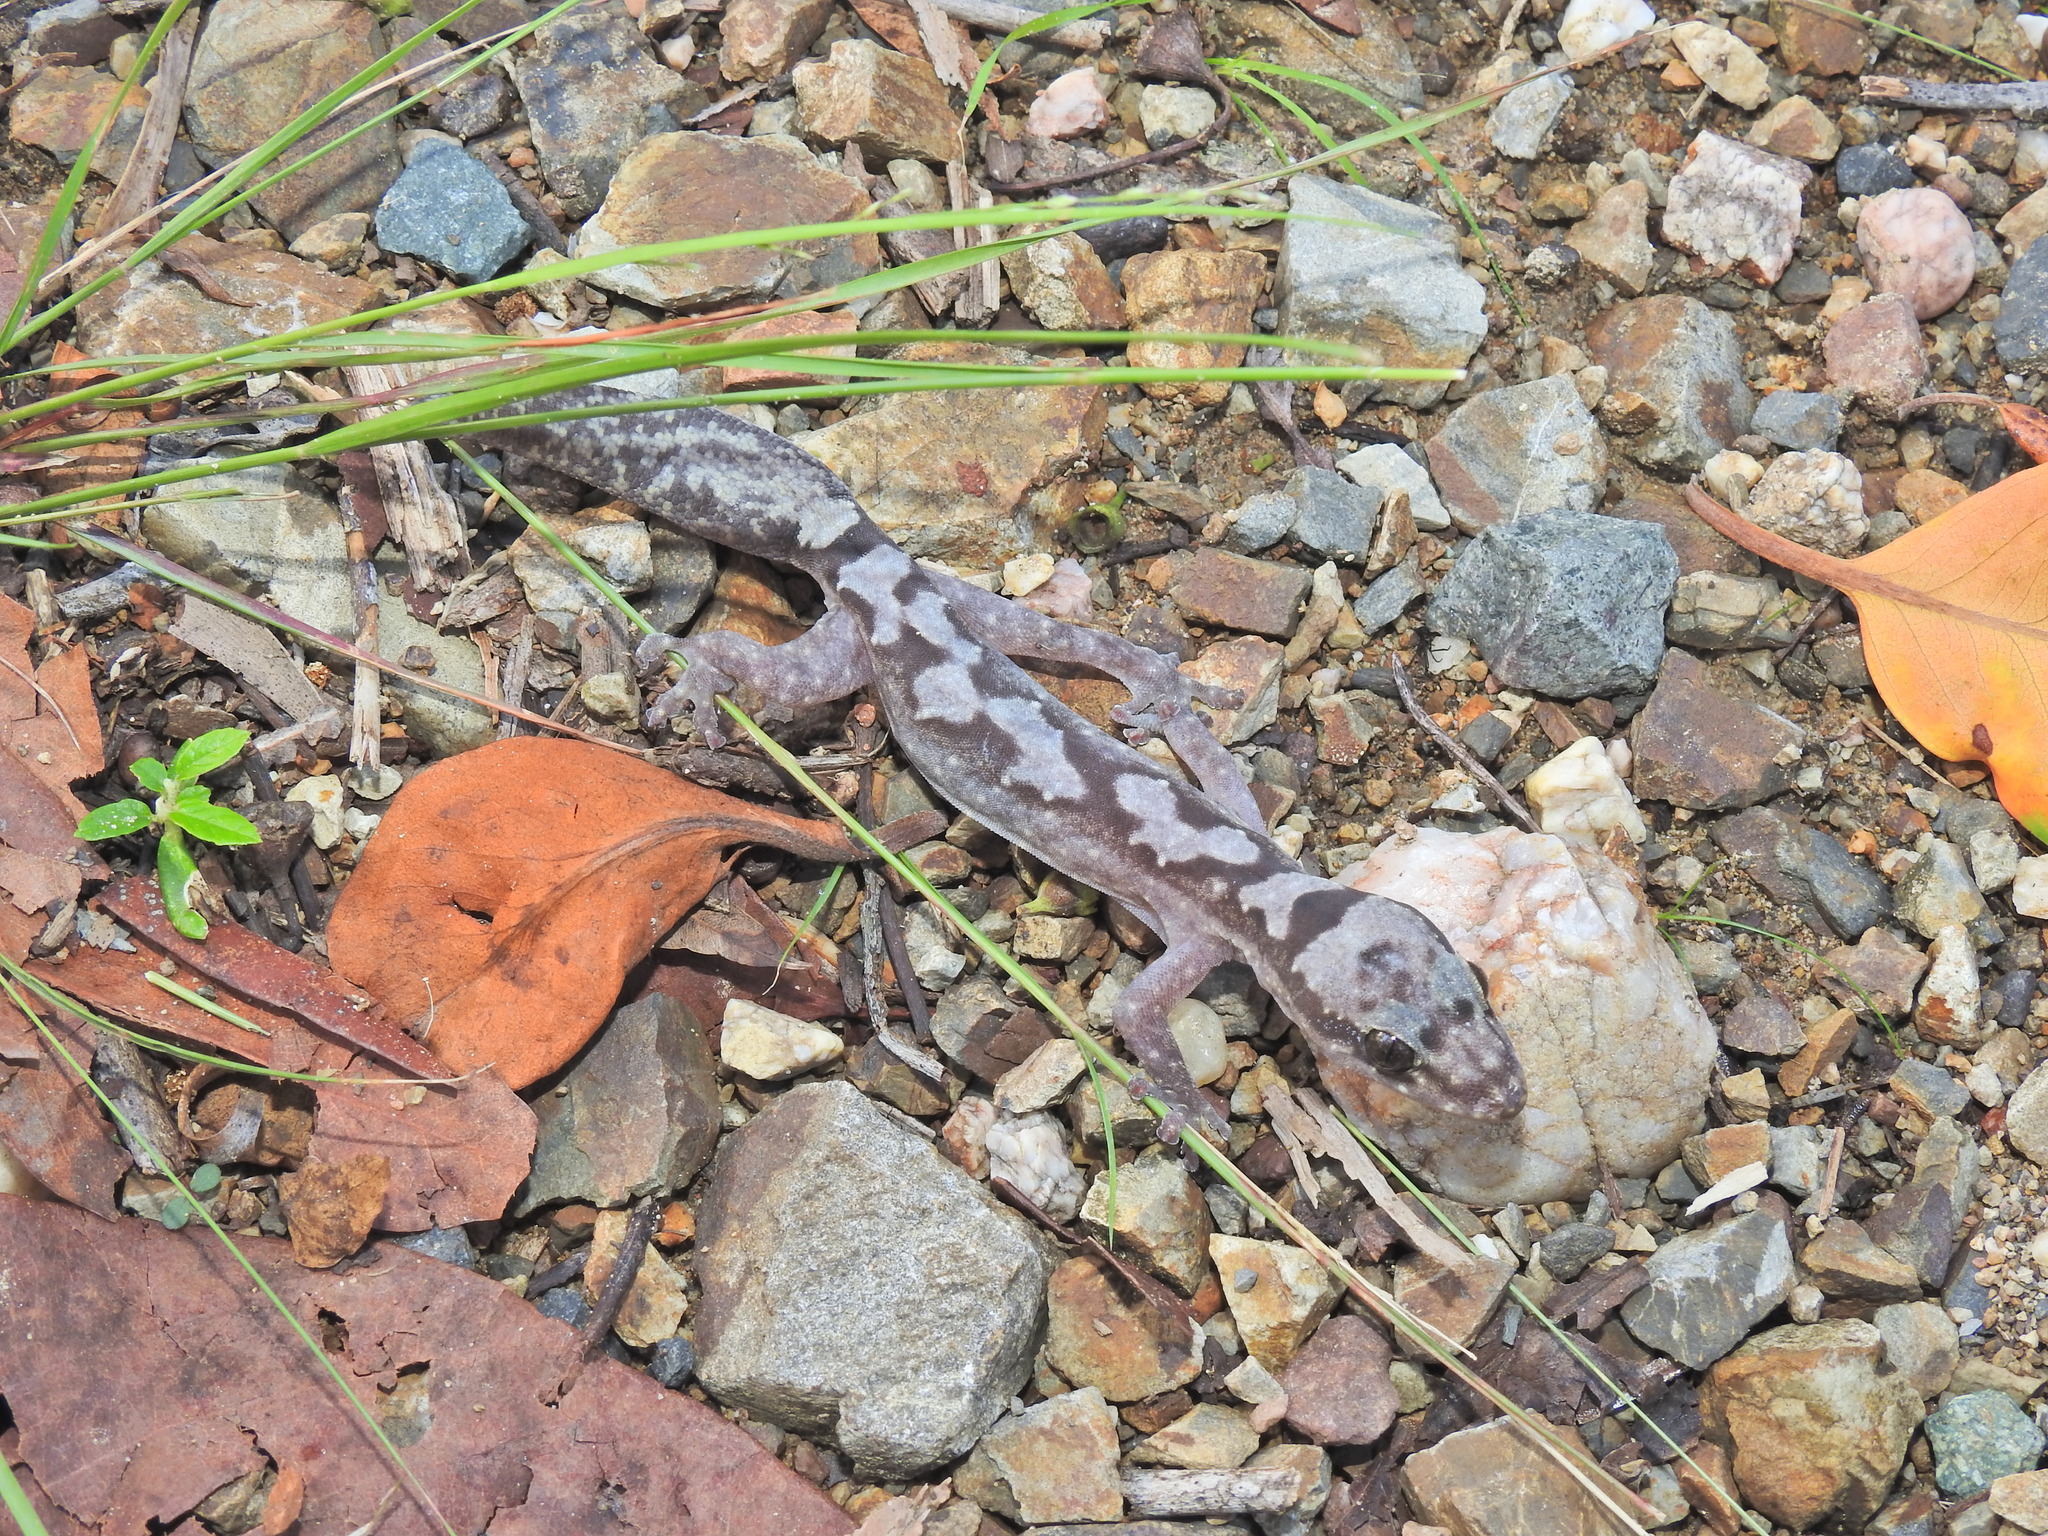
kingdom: Animalia
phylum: Chordata
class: Squamata
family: Diplodactylidae
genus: Nebulifera
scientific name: Nebulifera robusta
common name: Robust gecko
